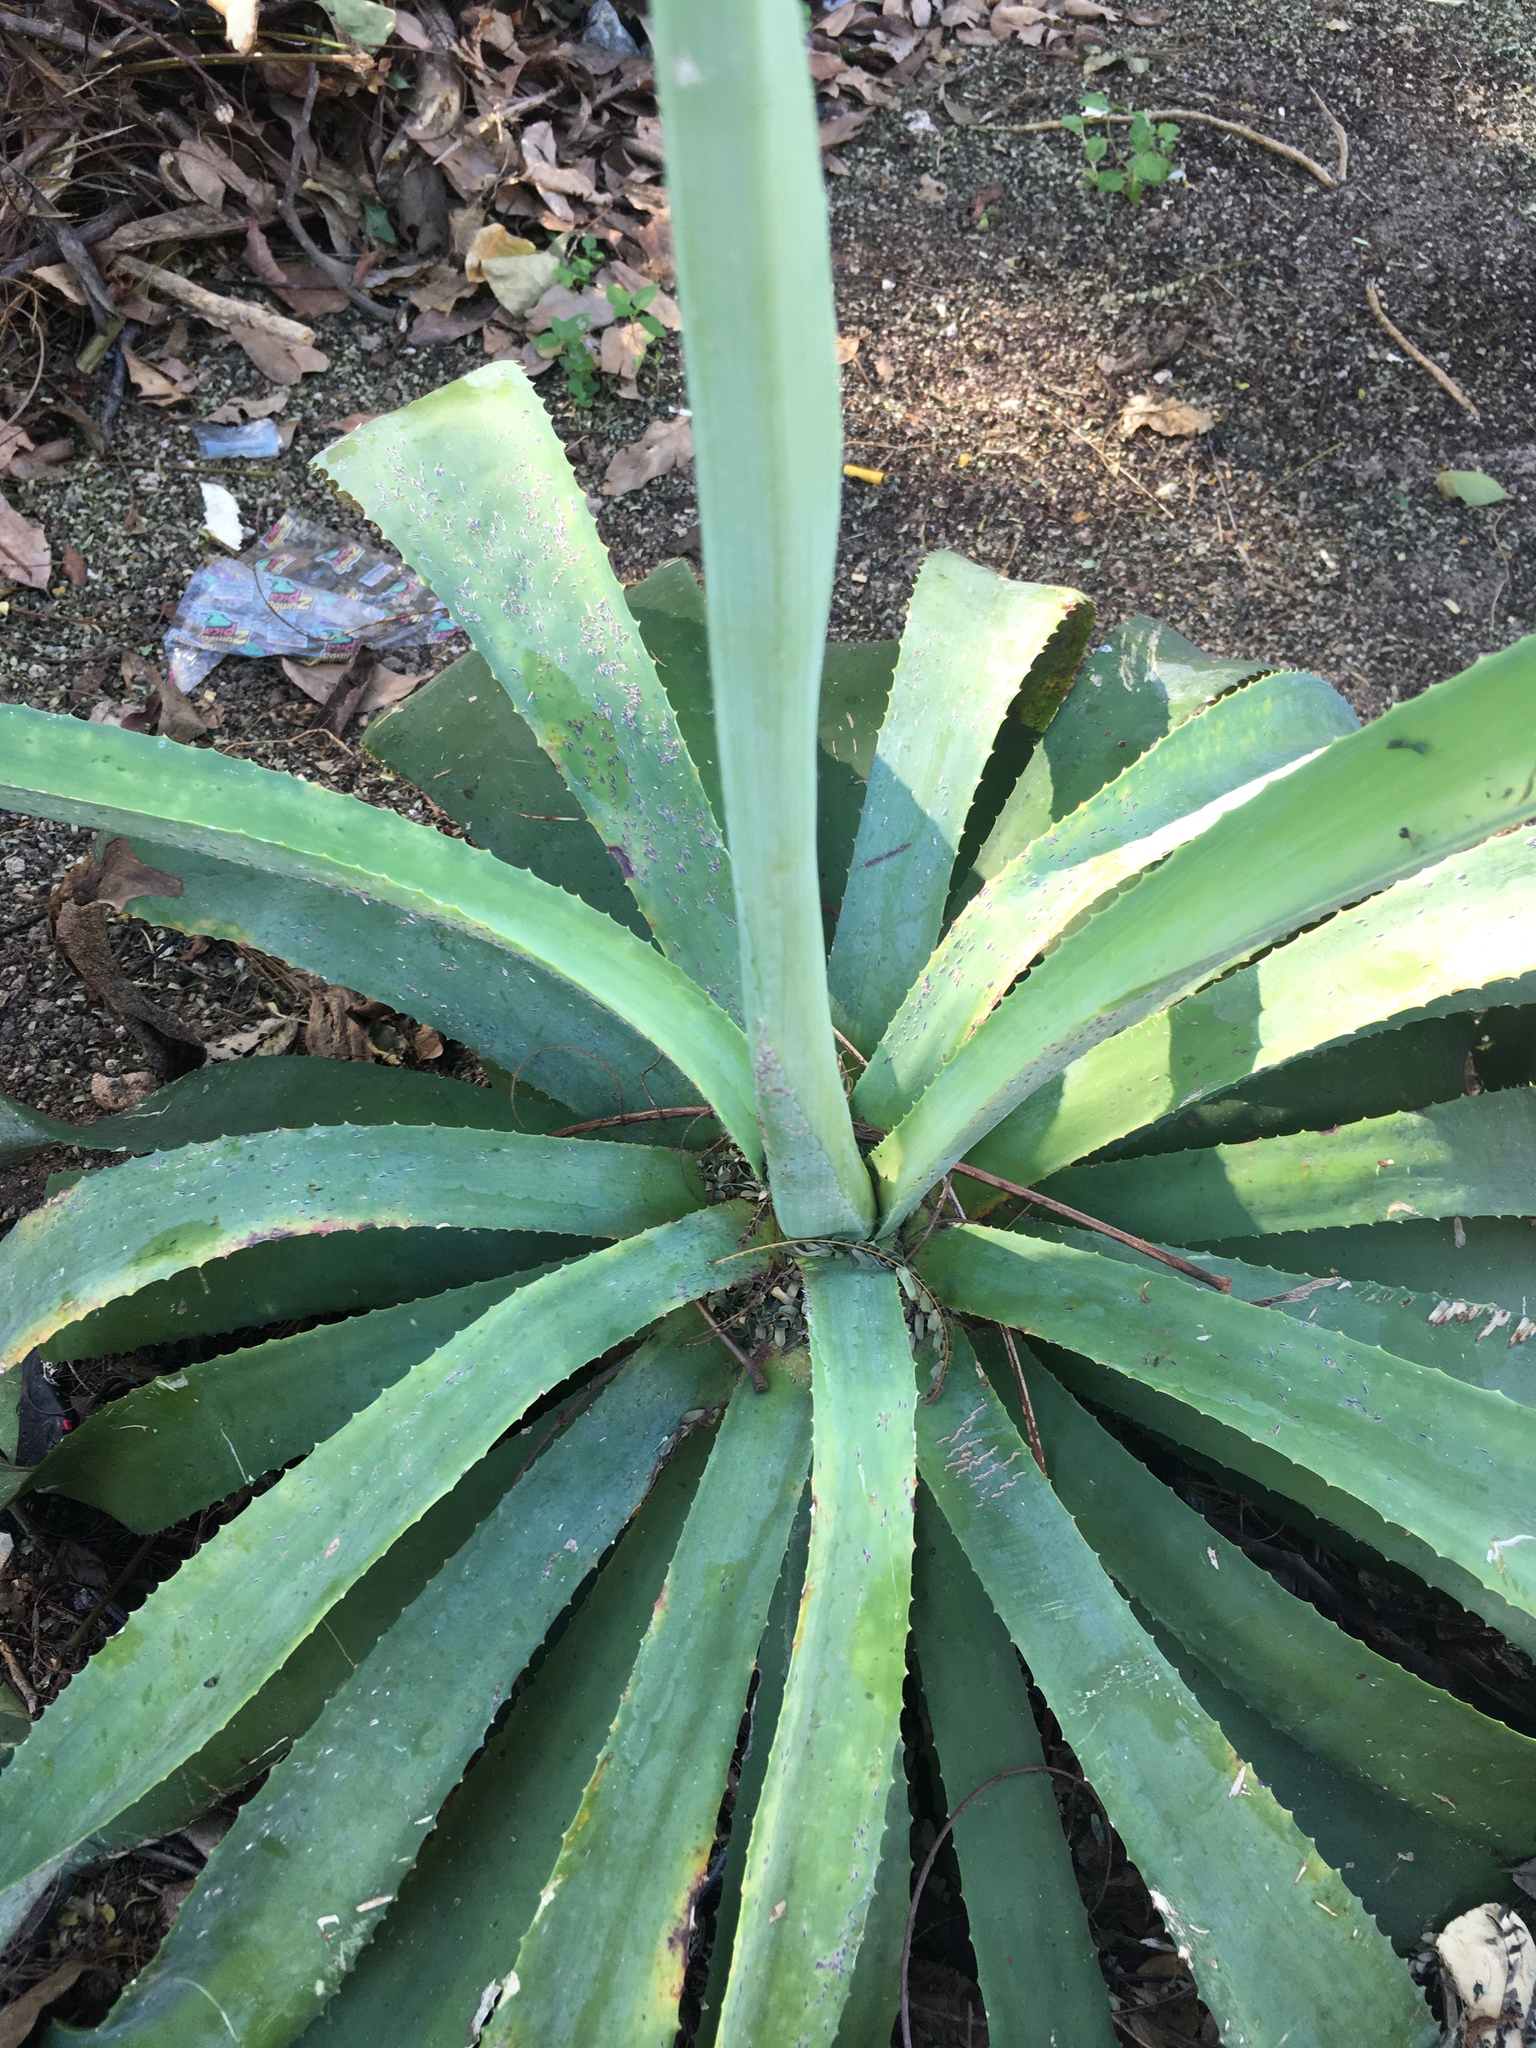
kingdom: Plantae
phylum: Tracheophyta
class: Liliopsida
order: Asparagales
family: Asparagaceae
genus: Agave
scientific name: Agave vivipara
